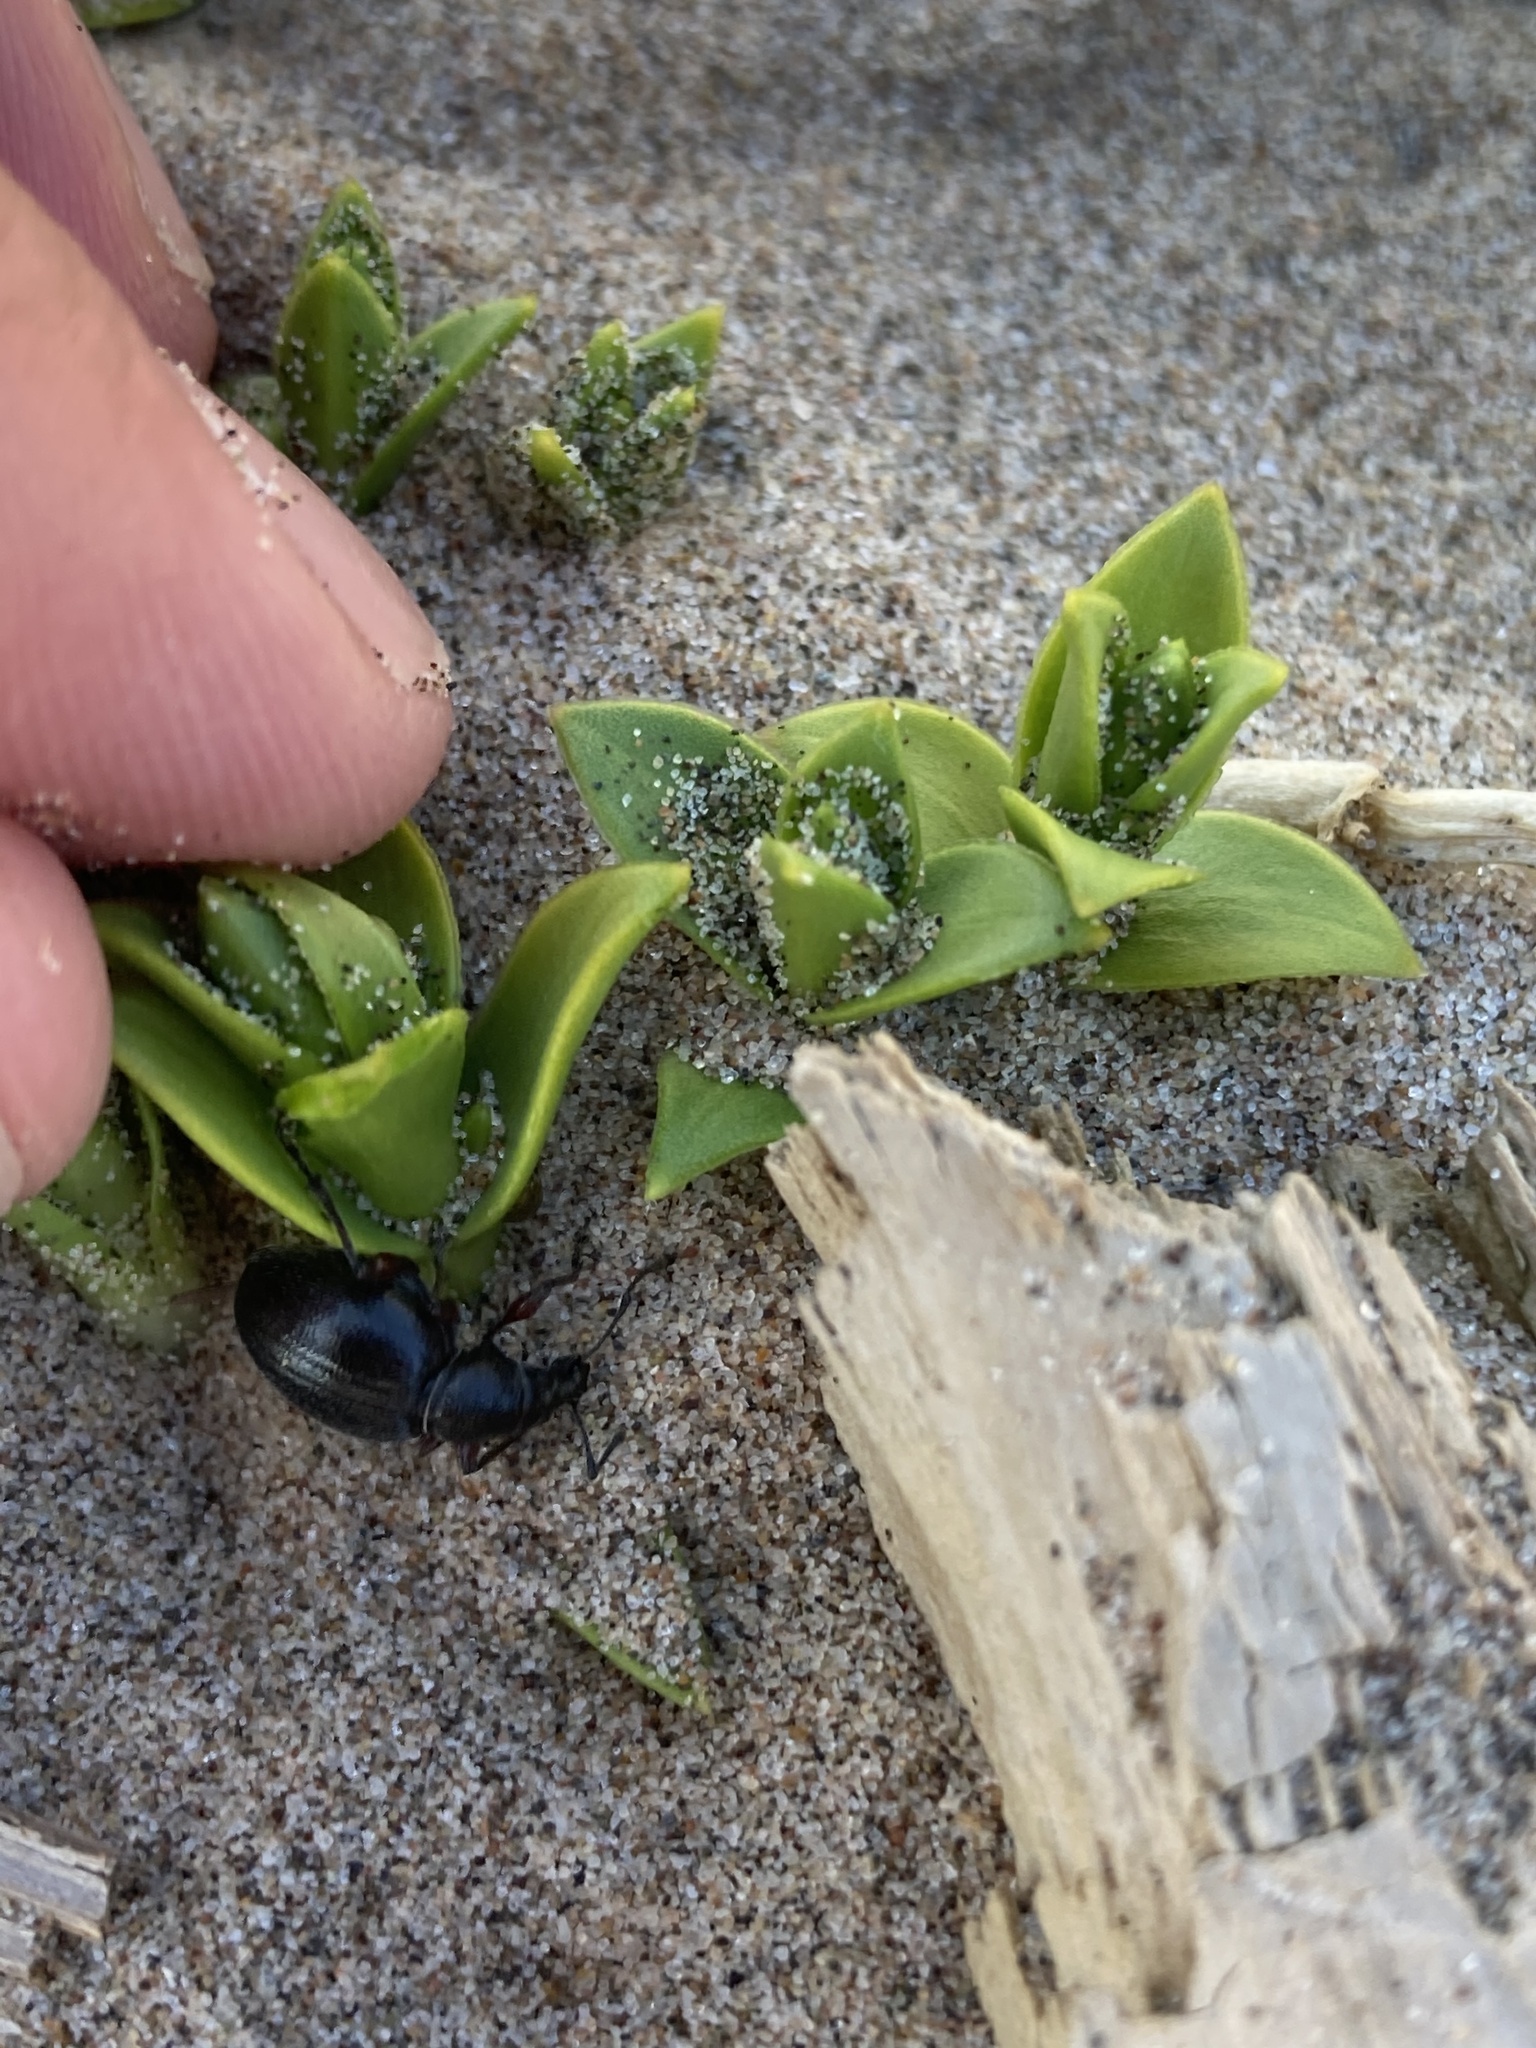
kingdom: Animalia
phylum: Arthropoda
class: Insecta
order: Coleoptera
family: Curculionidae
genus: Otiorhynchus
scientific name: Otiorhynchus atroapterus
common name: Black marram weevil
